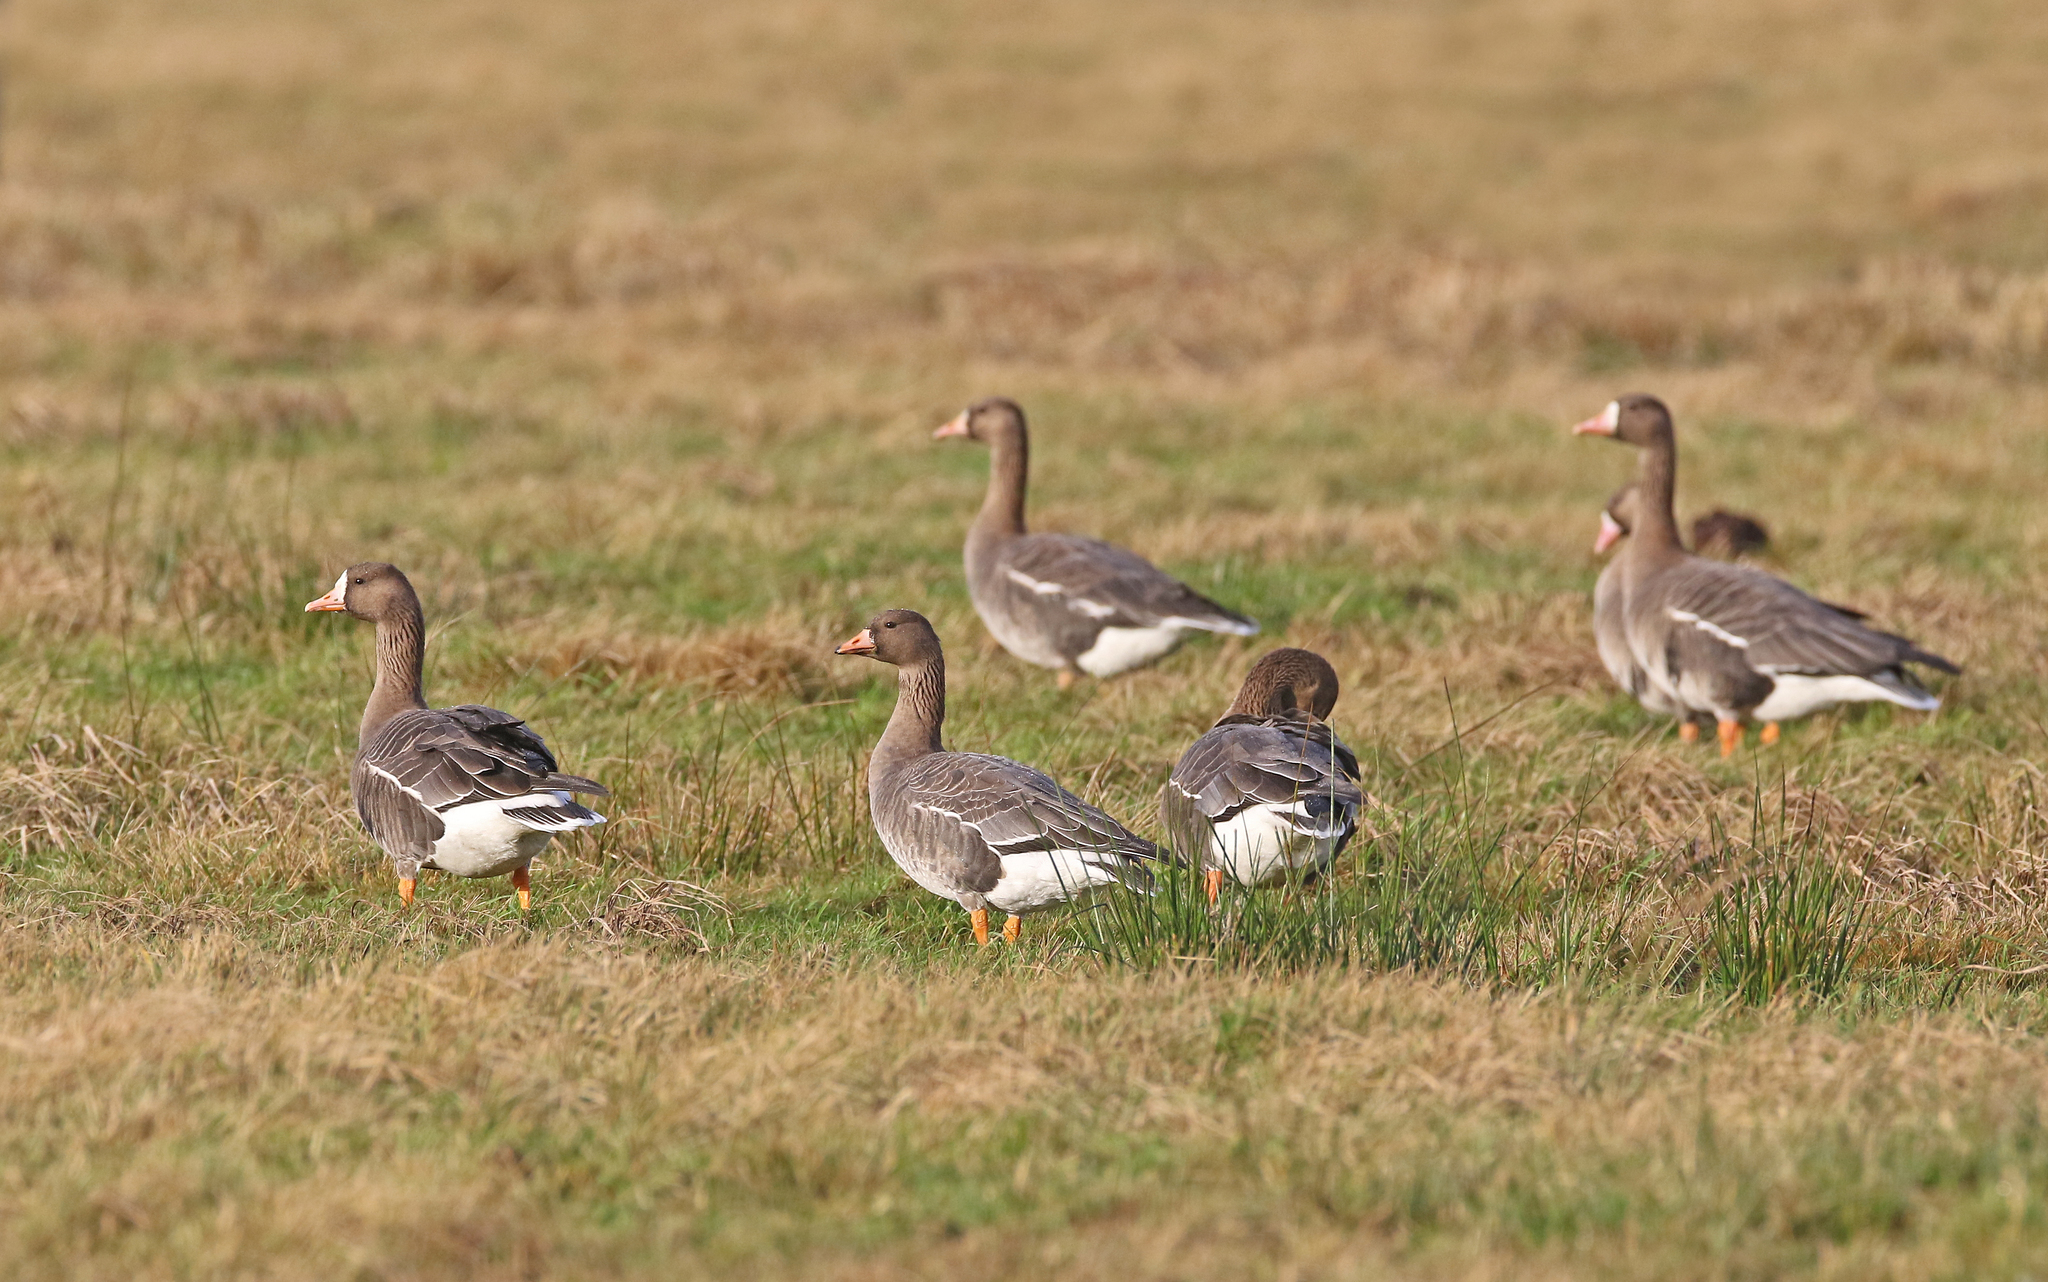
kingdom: Animalia
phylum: Chordata
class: Aves
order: Anseriformes
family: Anatidae
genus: Anser
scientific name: Anser albifrons
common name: Greater white-fronted goose
